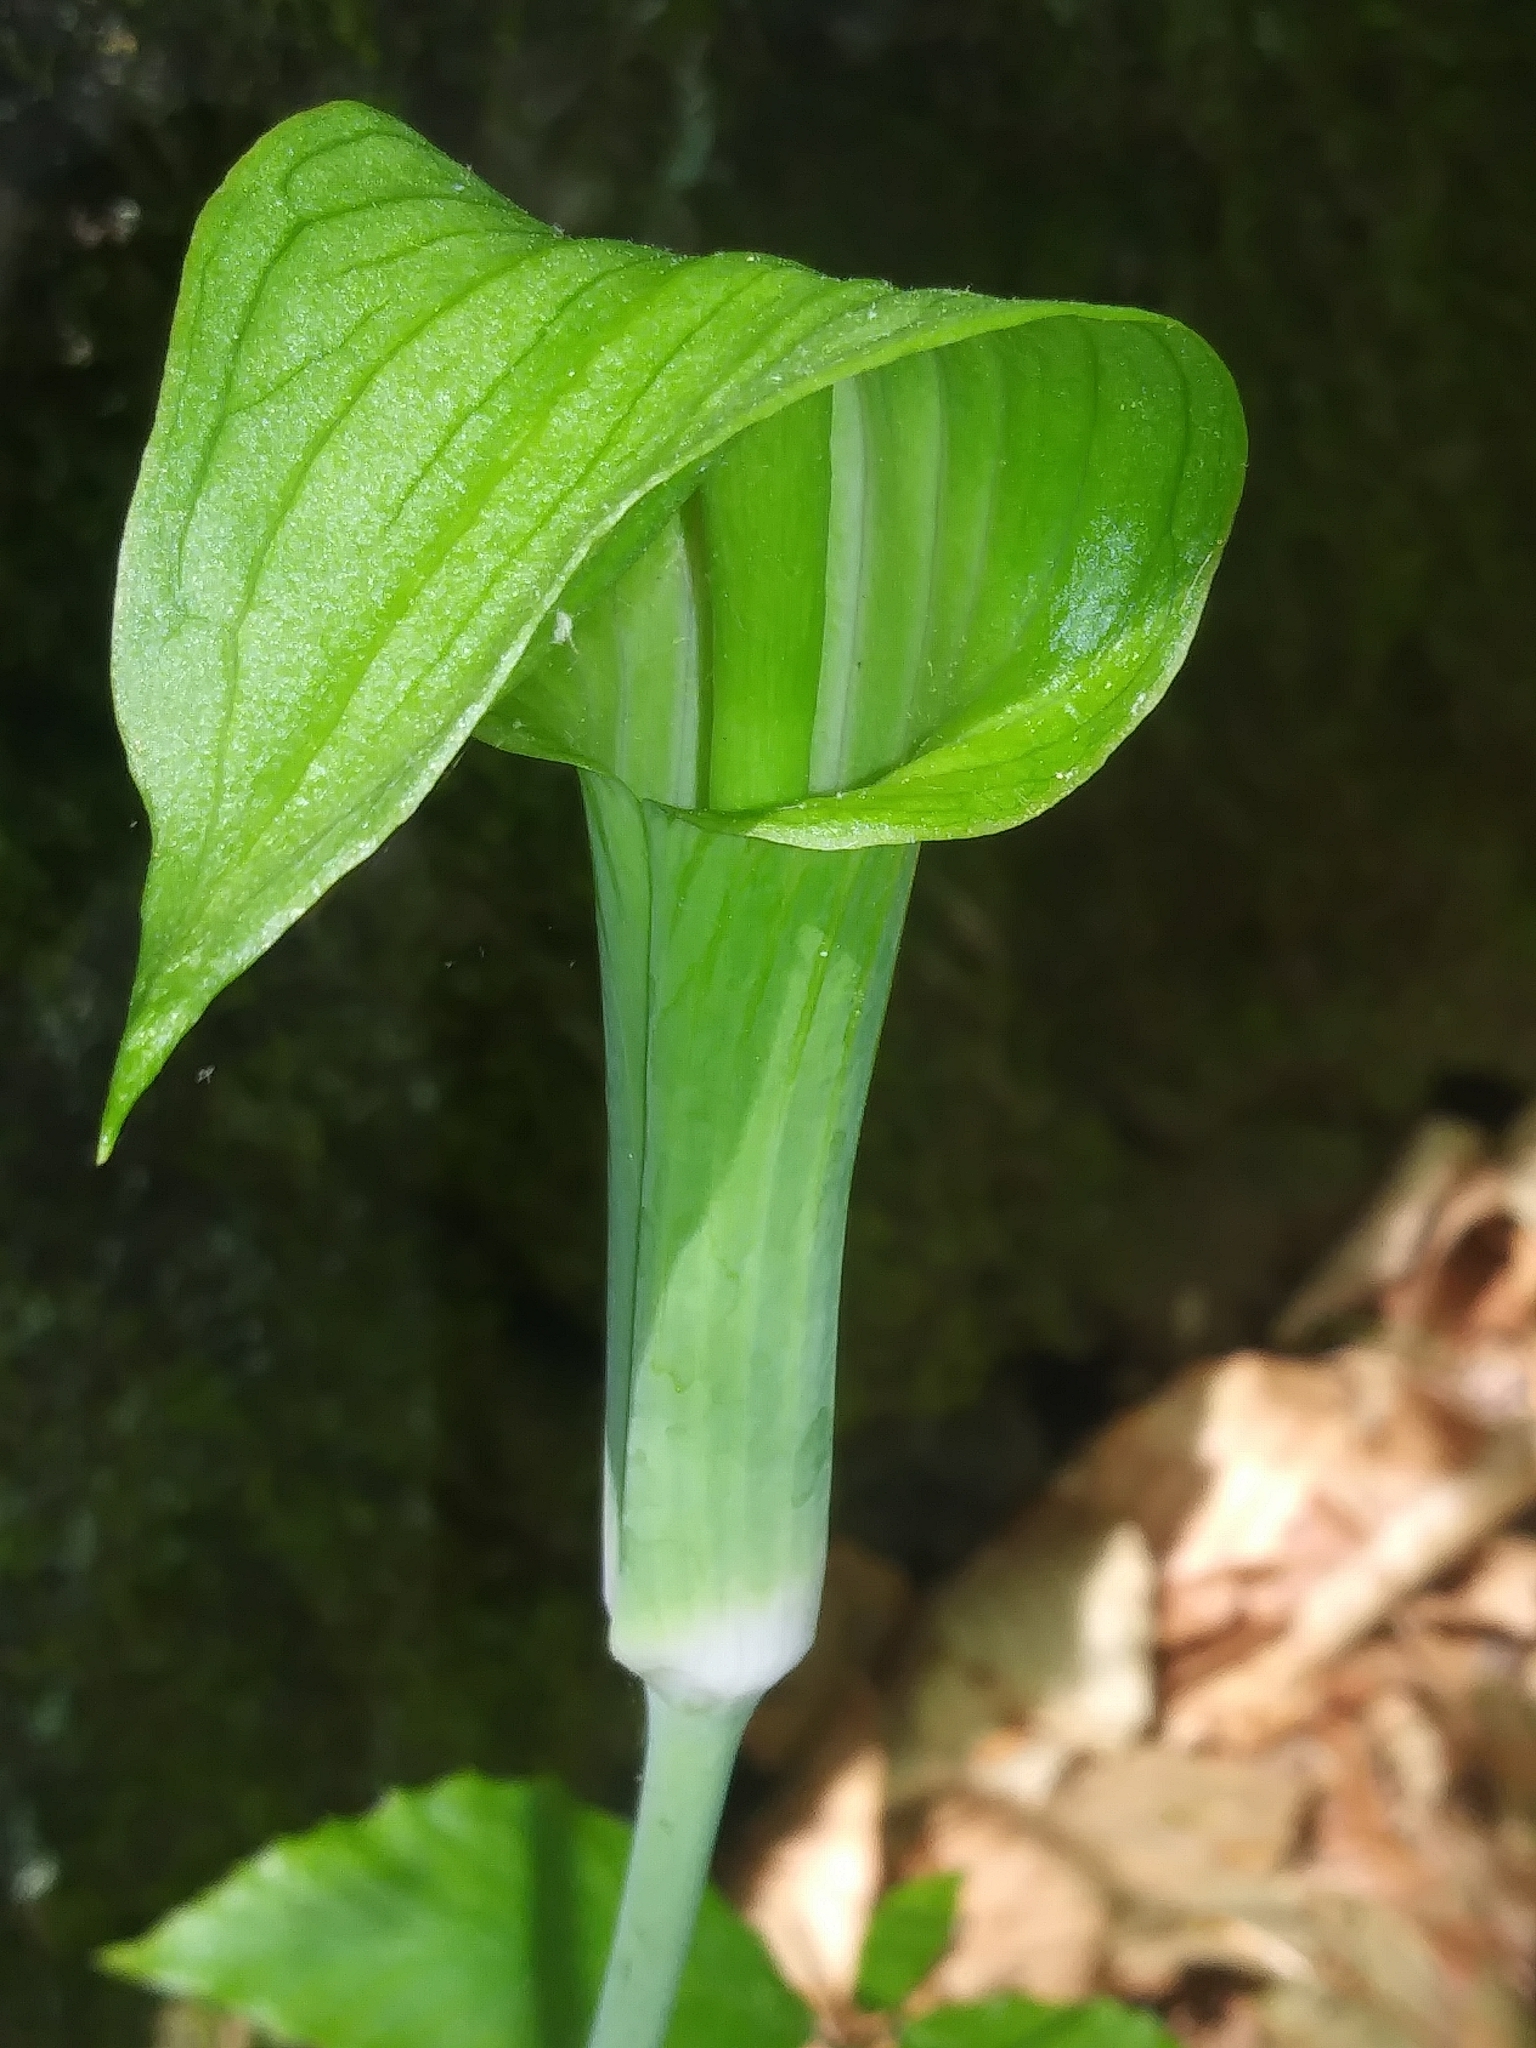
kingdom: Plantae
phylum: Tracheophyta
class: Liliopsida
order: Alismatales
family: Araceae
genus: Arisaema
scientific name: Arisaema triphyllum
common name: Jack-in-the-pulpit
